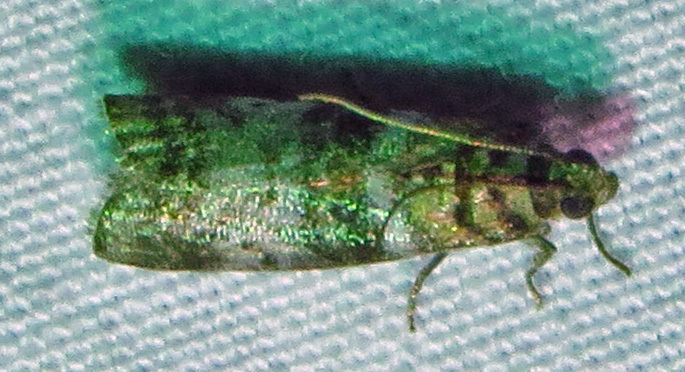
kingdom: Animalia
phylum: Arthropoda
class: Insecta
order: Lepidoptera
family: Pyralidae
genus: Sciota
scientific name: Sciota uvinella
